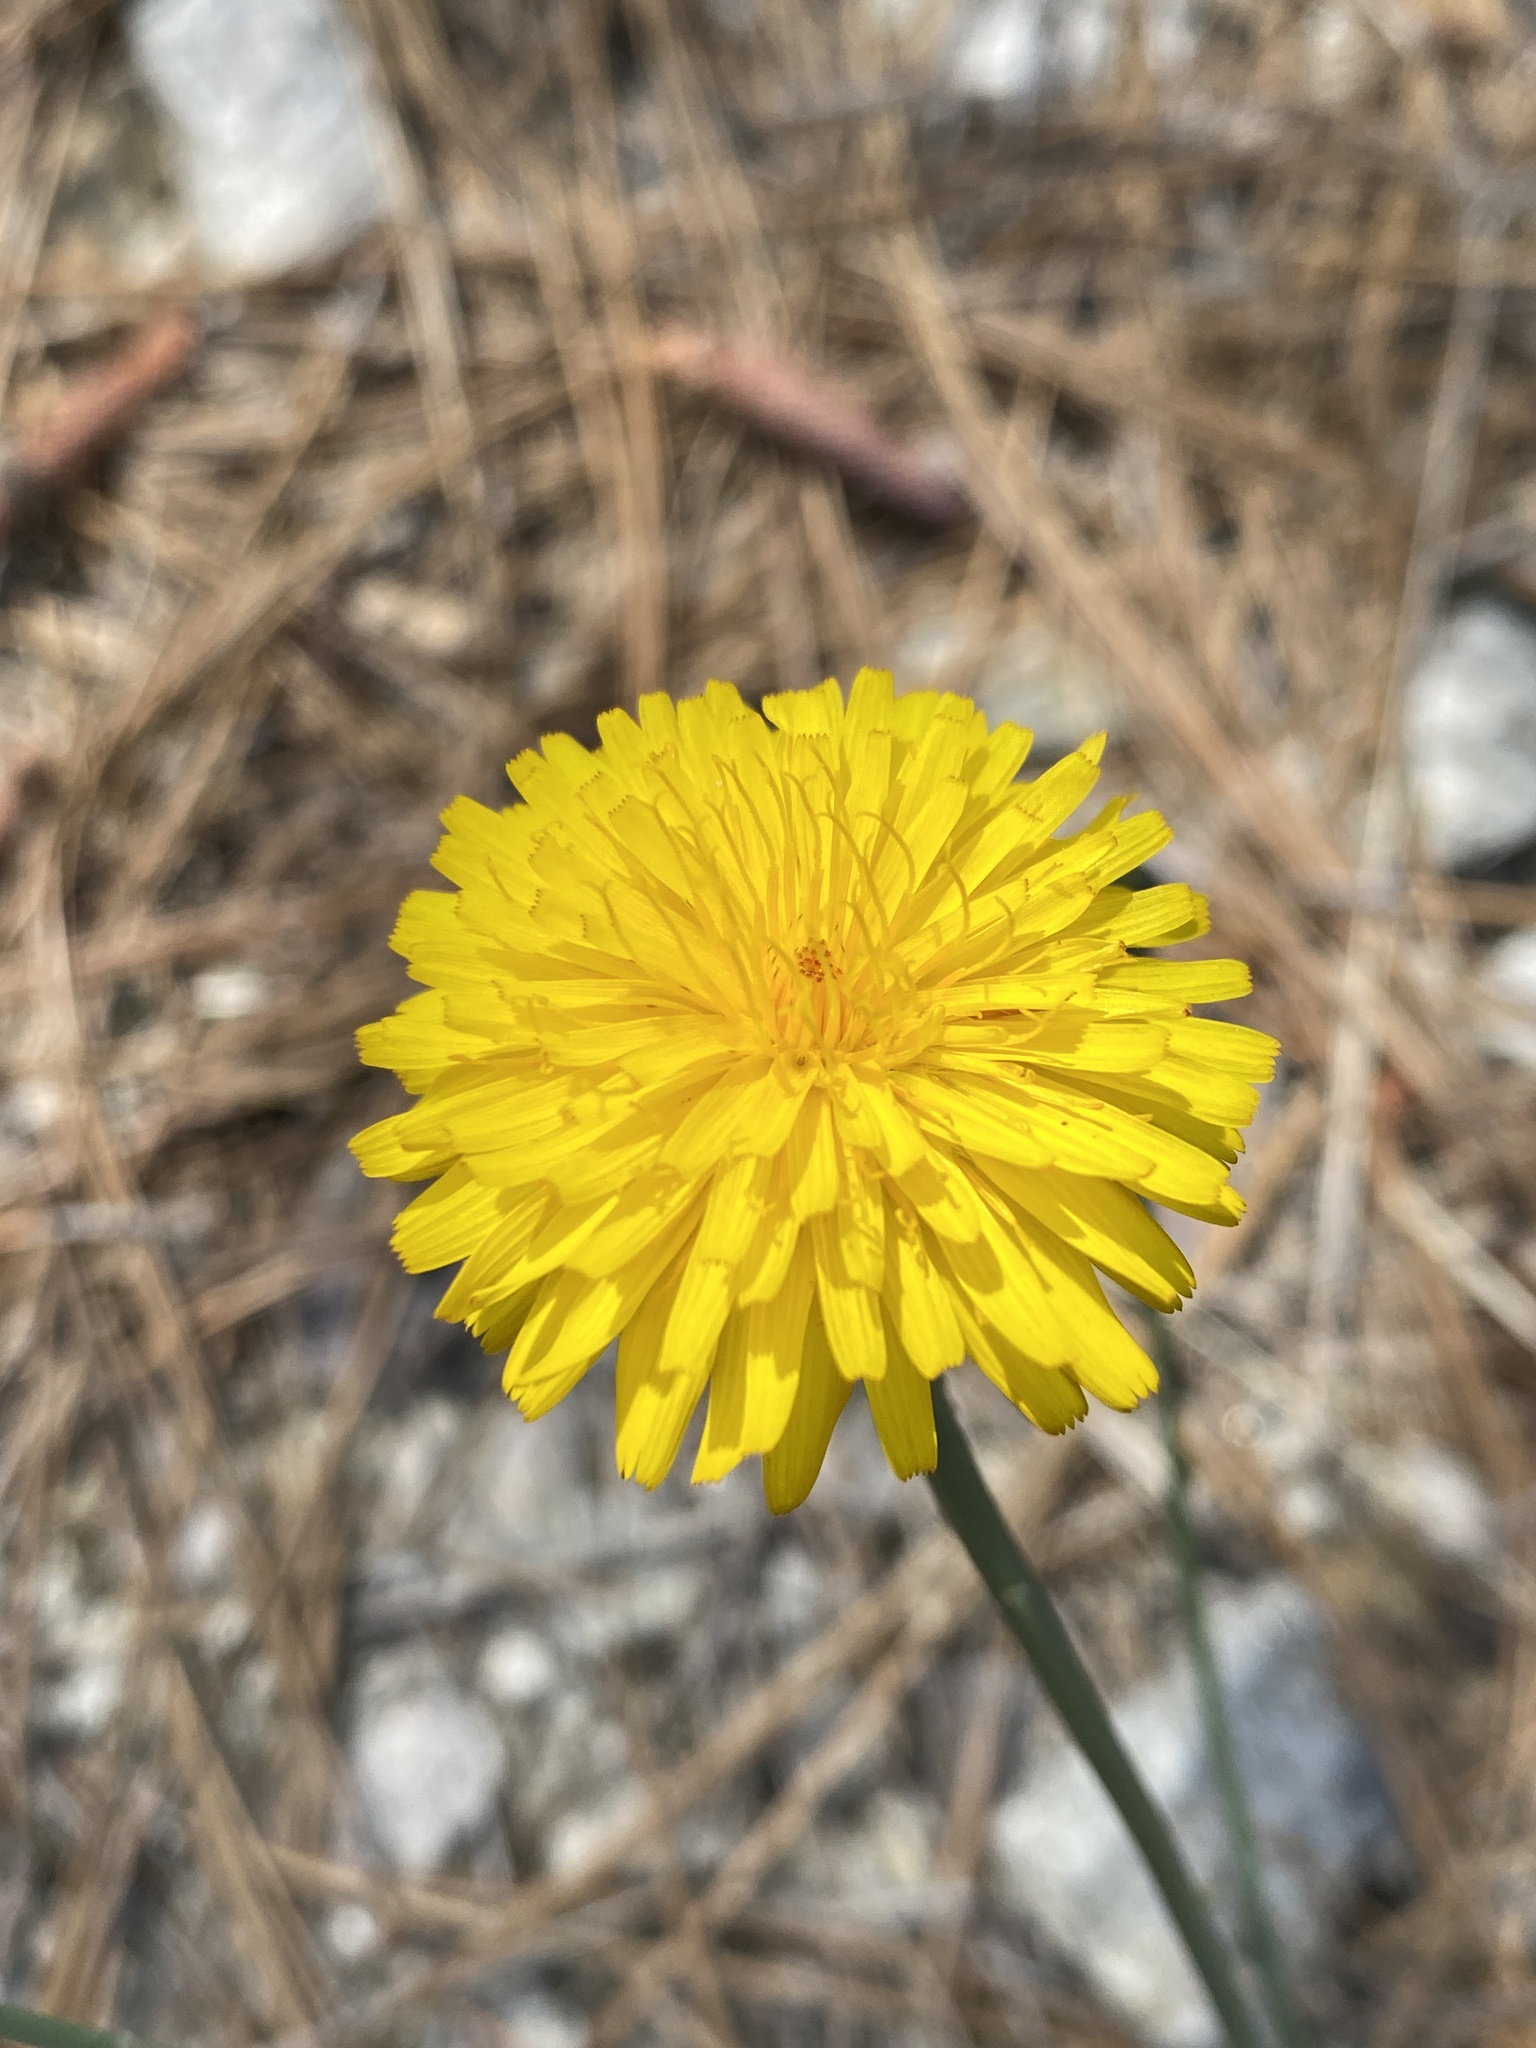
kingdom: Plantae
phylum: Tracheophyta
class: Magnoliopsida
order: Asterales
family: Asteraceae
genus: Hypochaeris
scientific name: Hypochaeris radicata
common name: Flatweed
